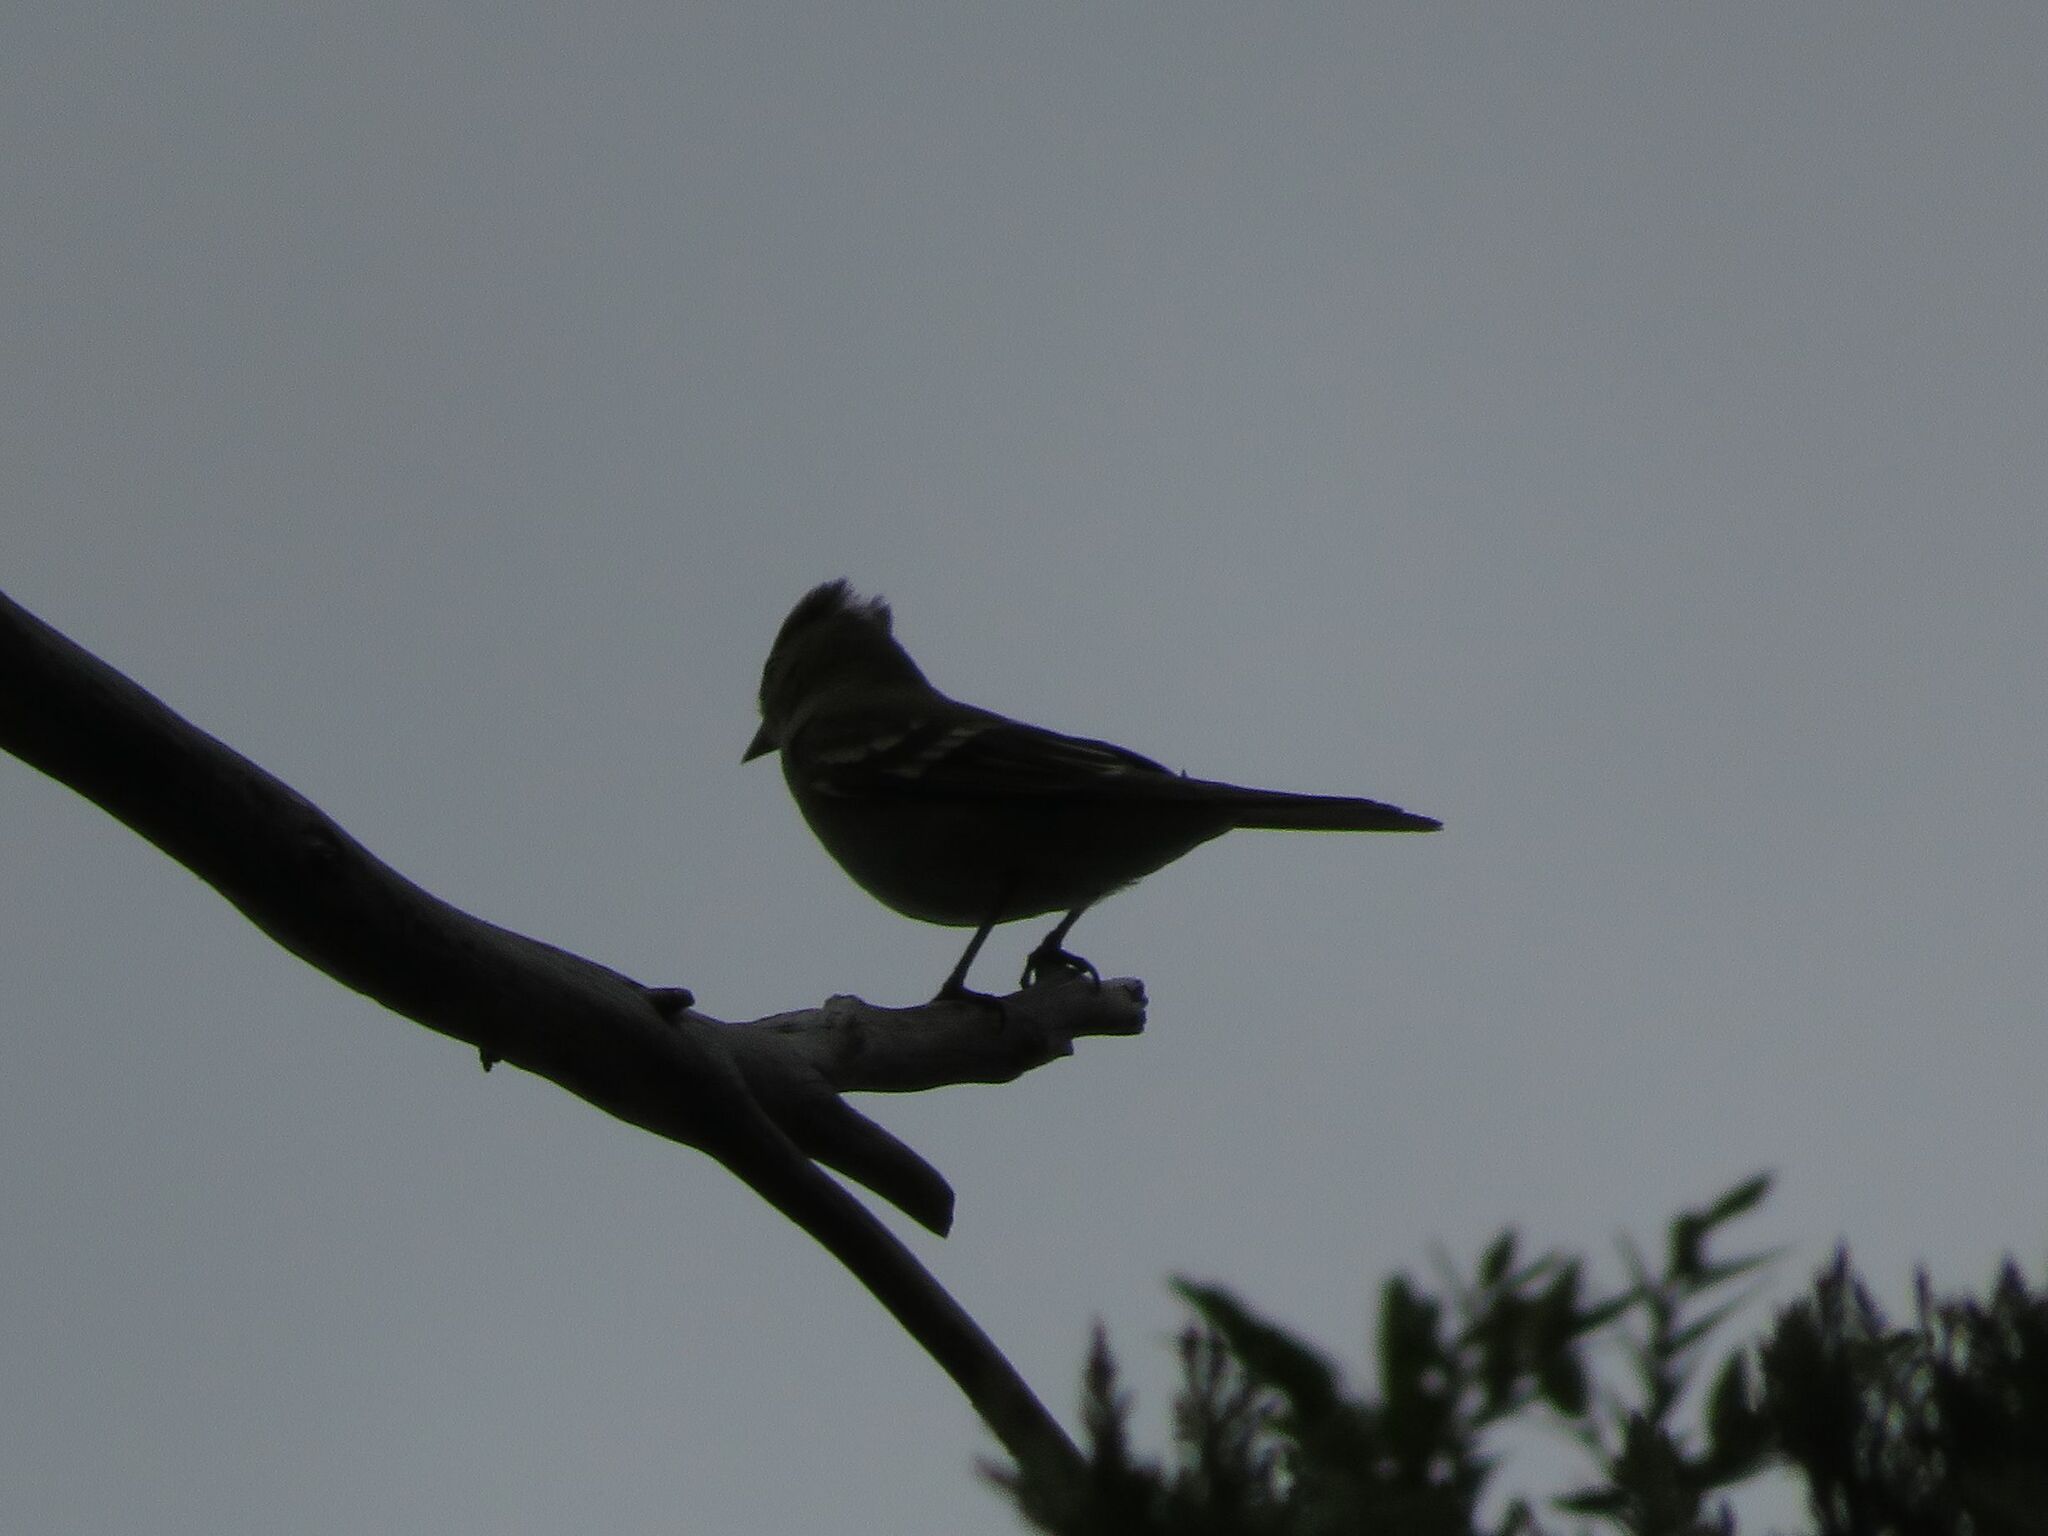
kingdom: Animalia
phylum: Chordata
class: Aves
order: Passeriformes
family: Tyrannidae
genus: Elaenia
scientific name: Elaenia albiceps
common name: White-crested elaenia
